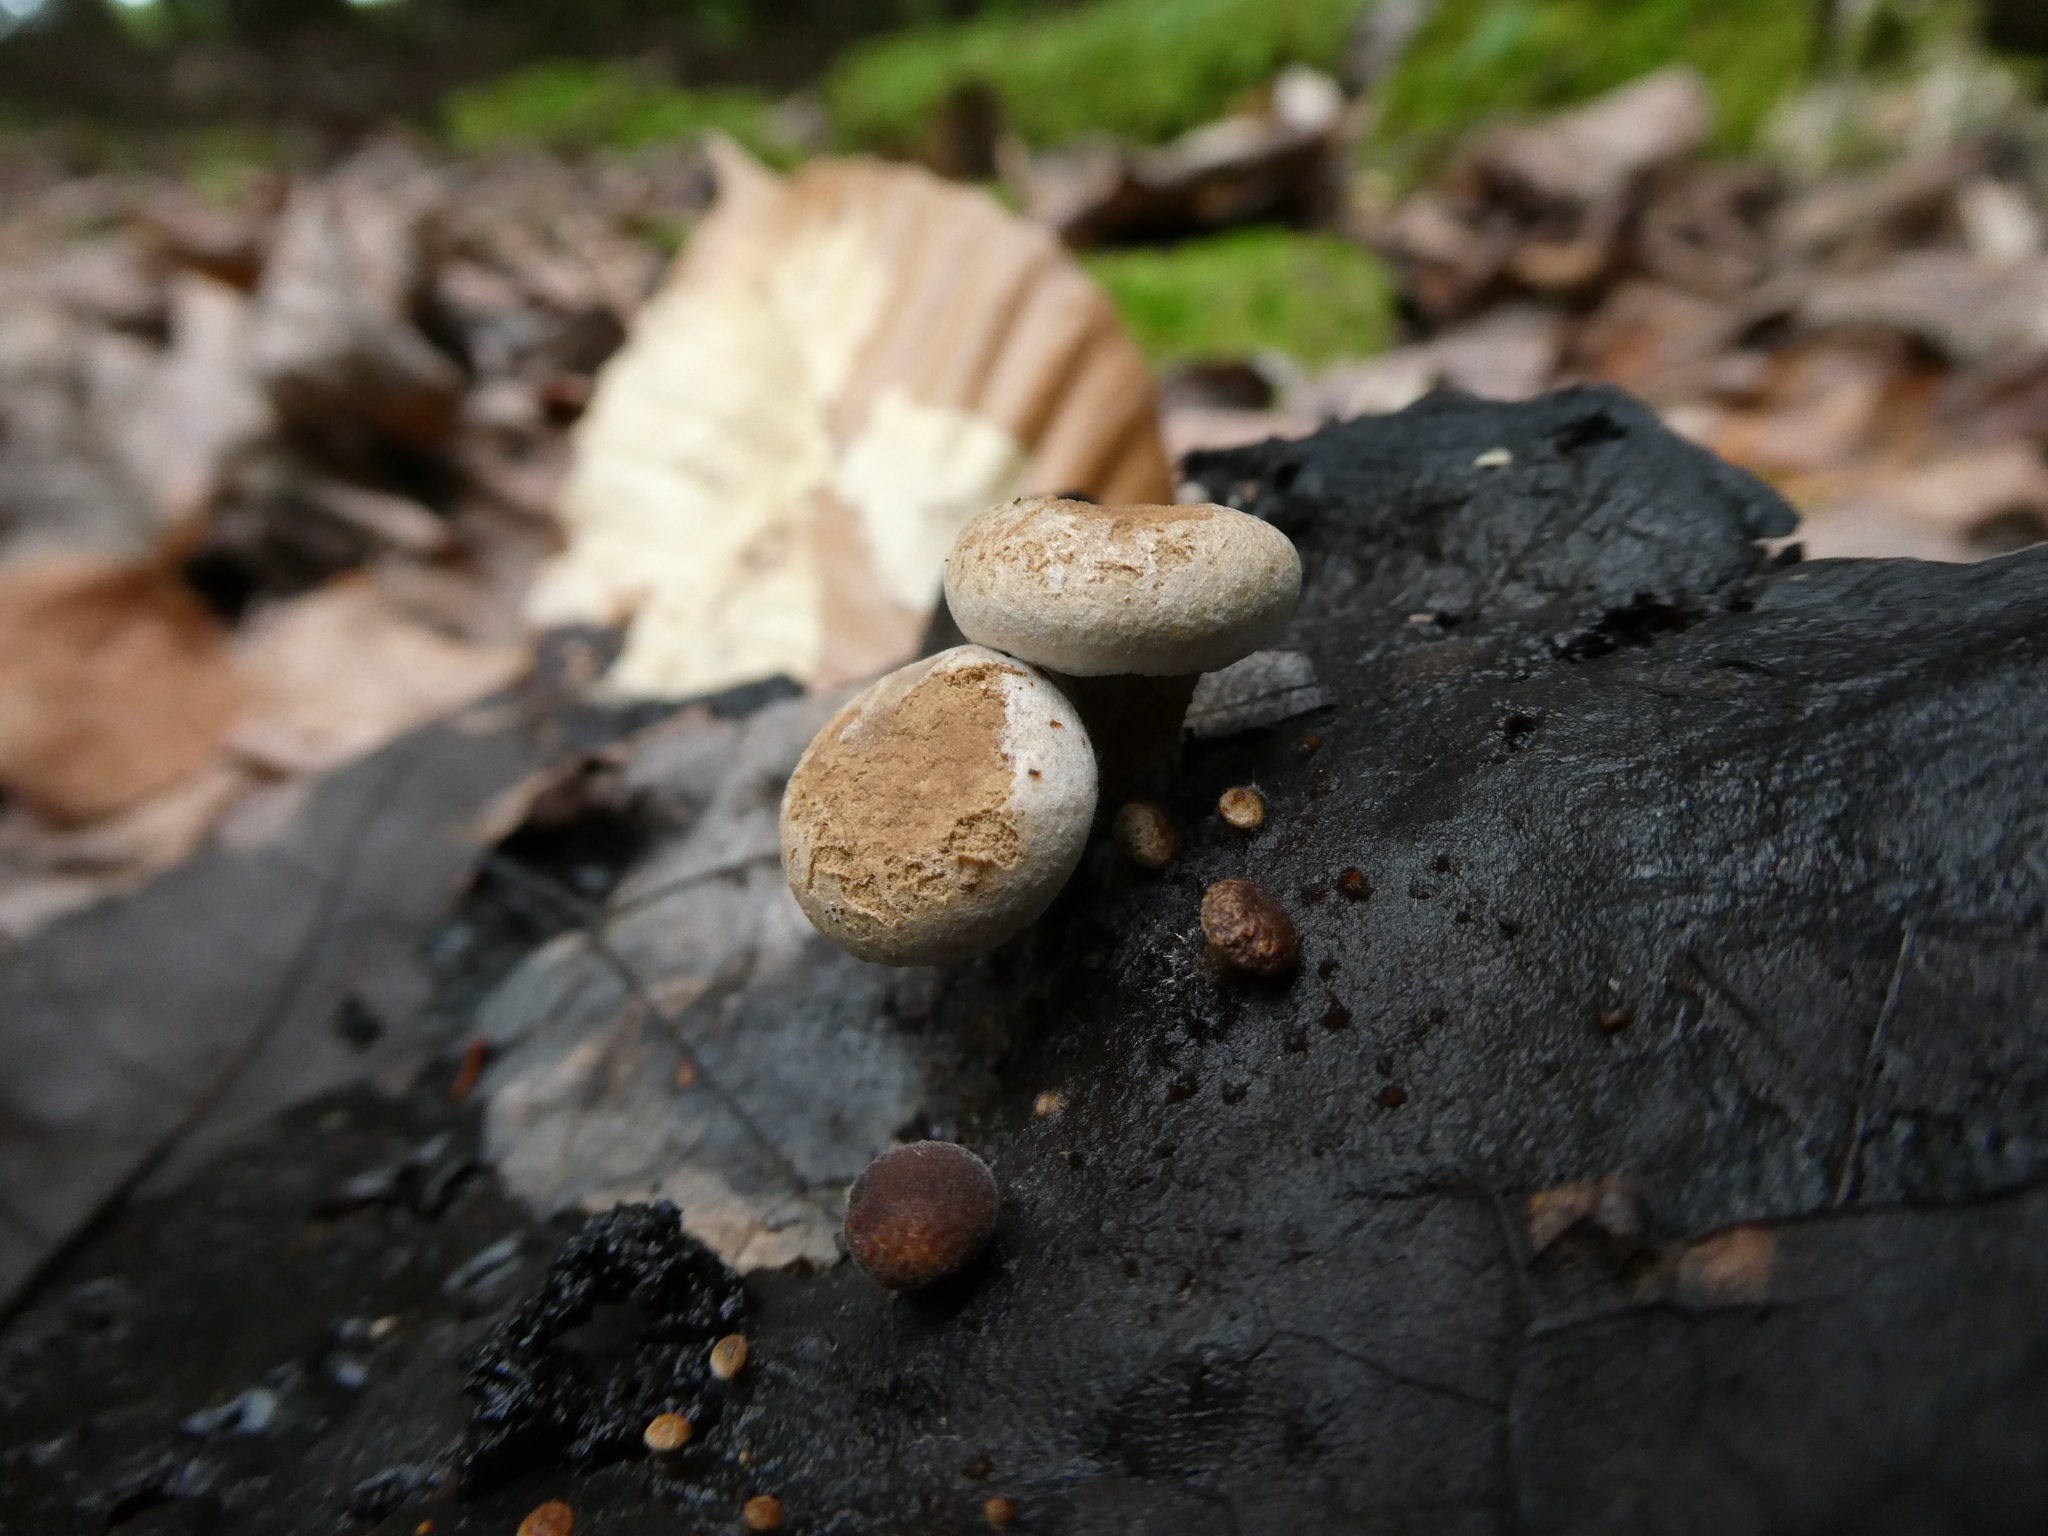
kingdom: Fungi
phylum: Basidiomycota
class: Agaricomycetes
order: Agaricales
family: Lyophyllaceae
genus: Asterophora
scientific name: Asterophora lycoperdoides
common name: Pick-a-back toadstool
